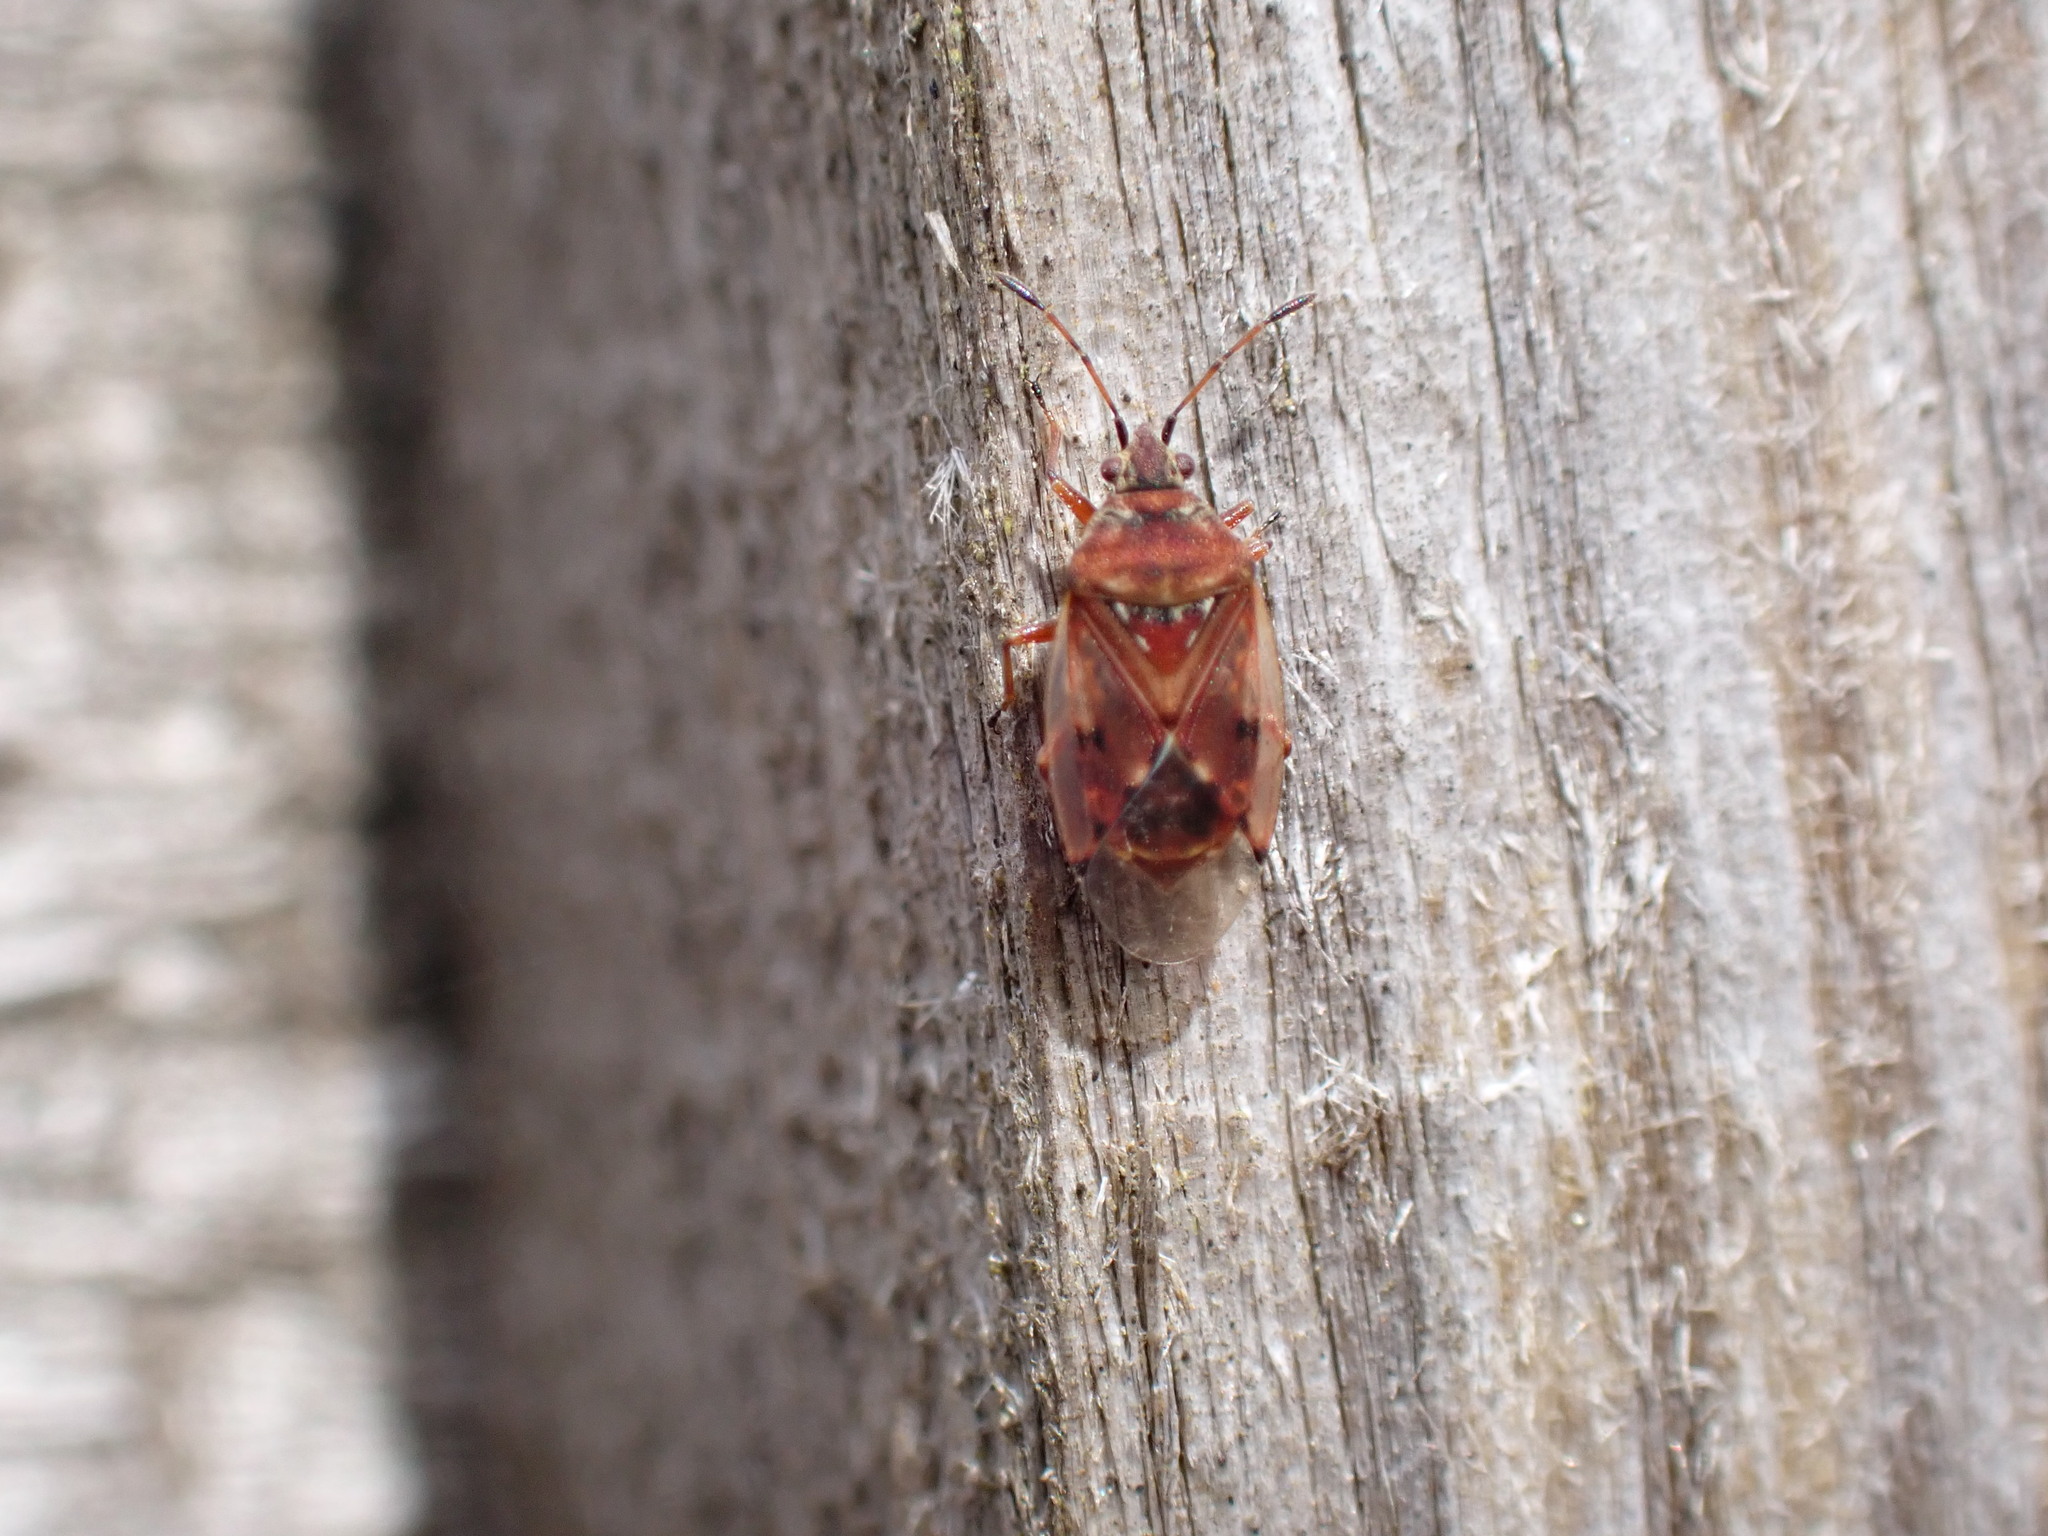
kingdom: Animalia
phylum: Arthropoda
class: Insecta
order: Hemiptera
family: Lygaeidae
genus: Kleidocerys
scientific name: Kleidocerys resedae
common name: Birch catkin bug
